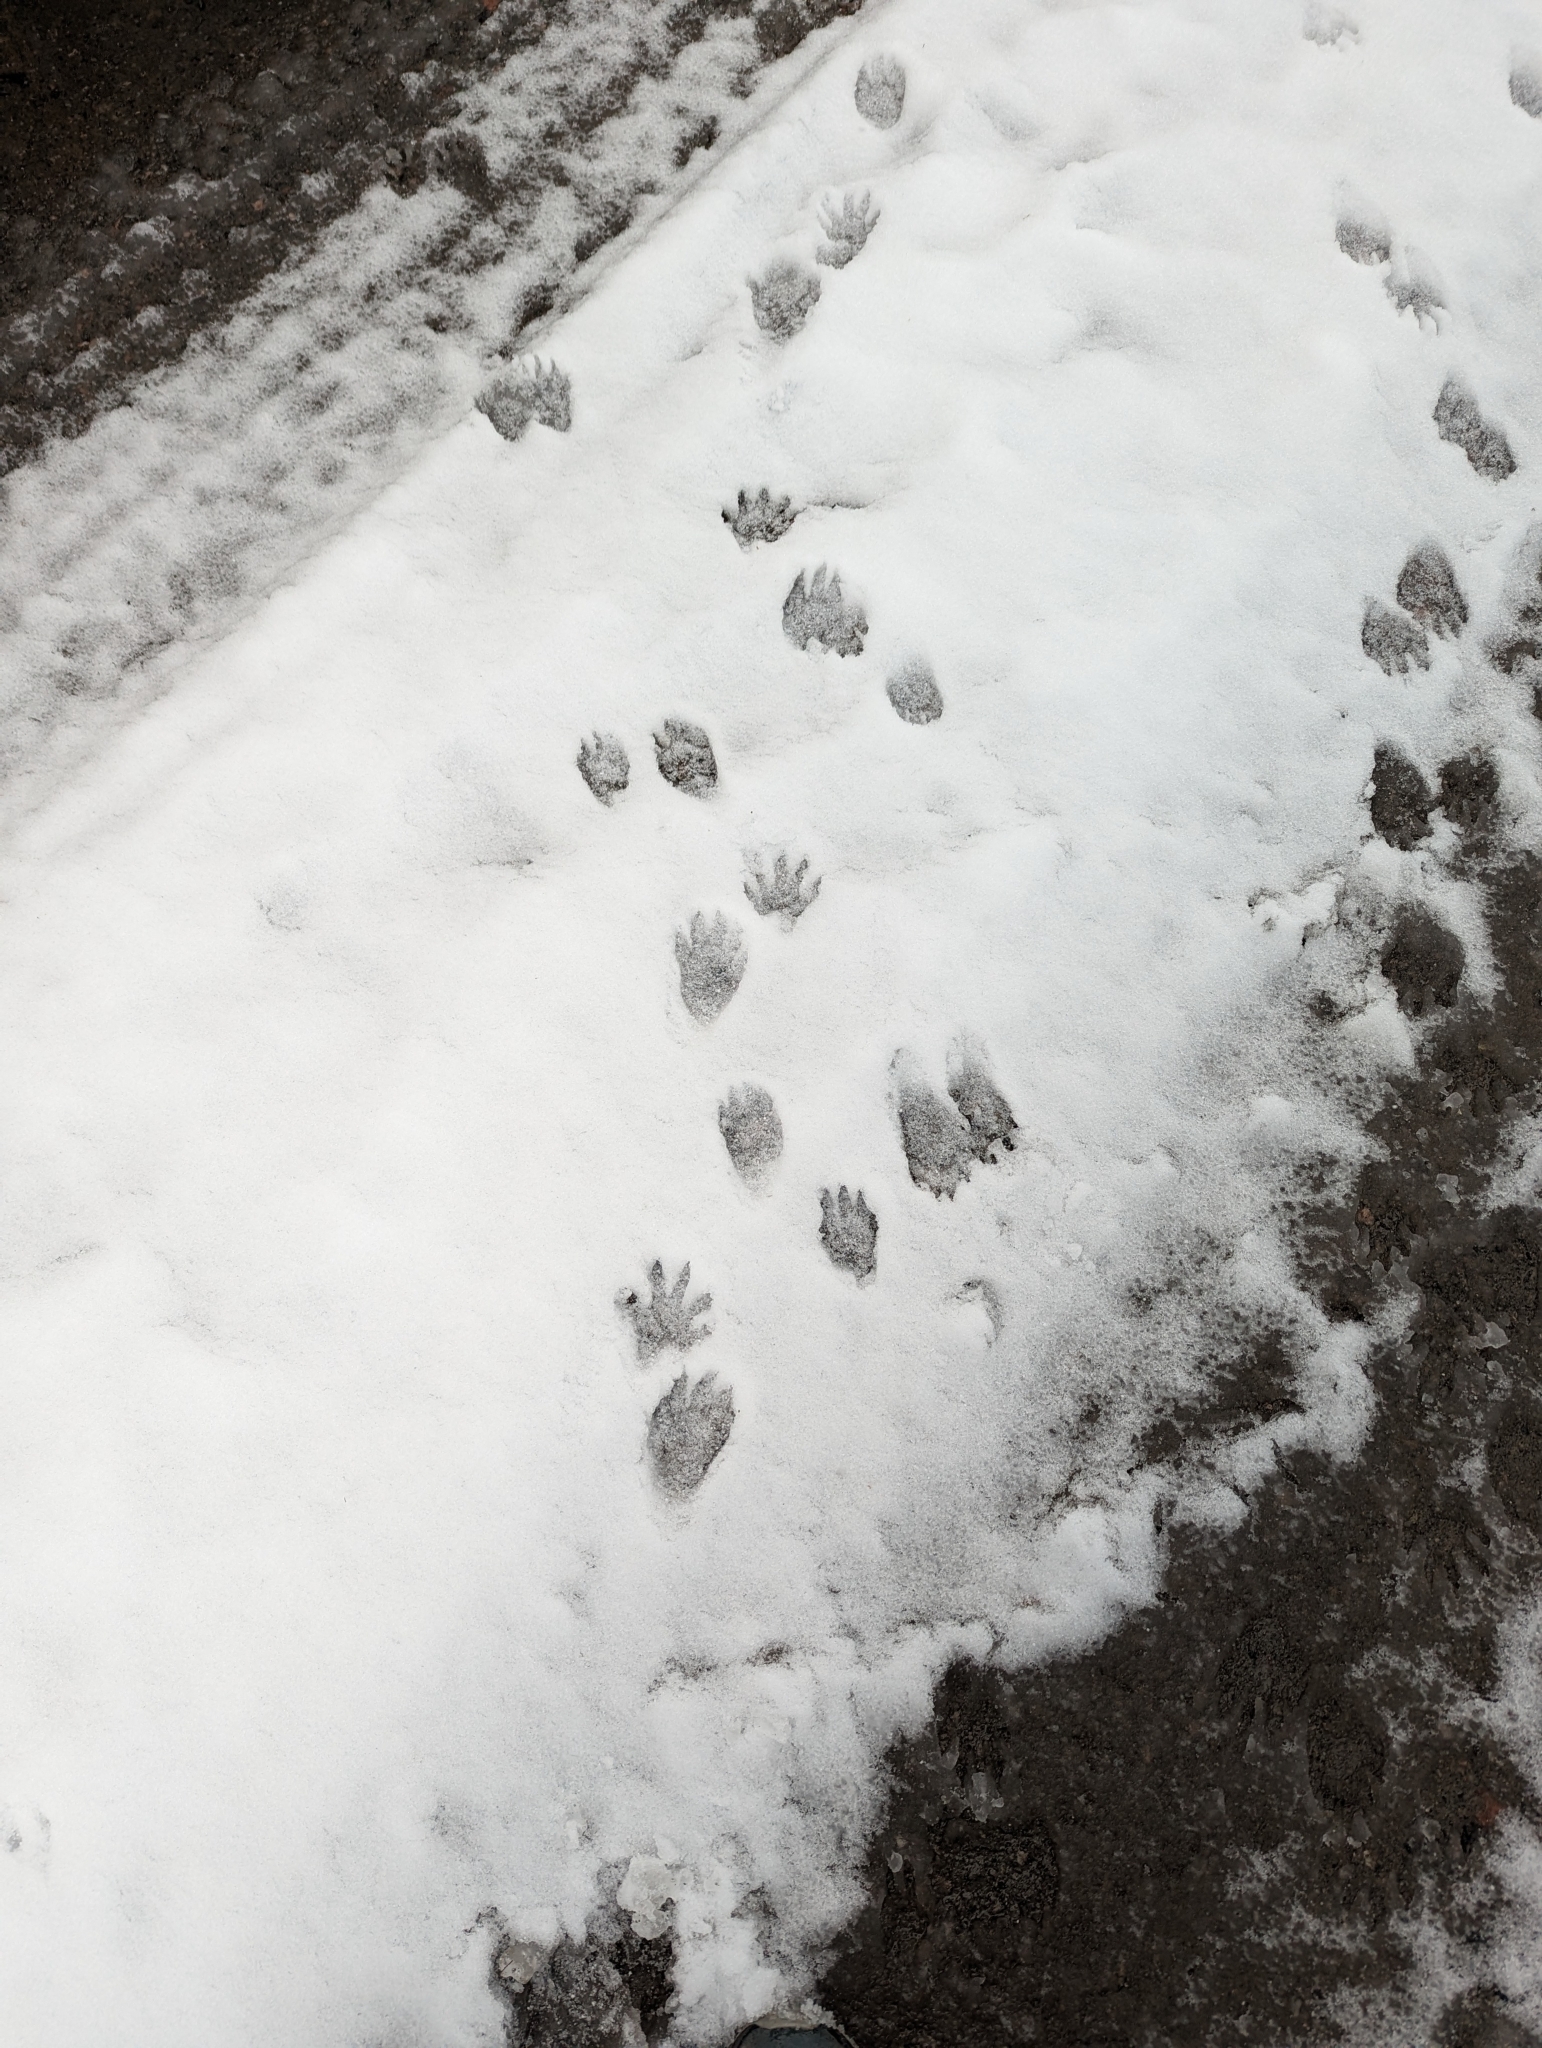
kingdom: Animalia
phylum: Chordata
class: Mammalia
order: Carnivora
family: Procyonidae
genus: Procyon
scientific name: Procyon lotor
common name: Raccoon
